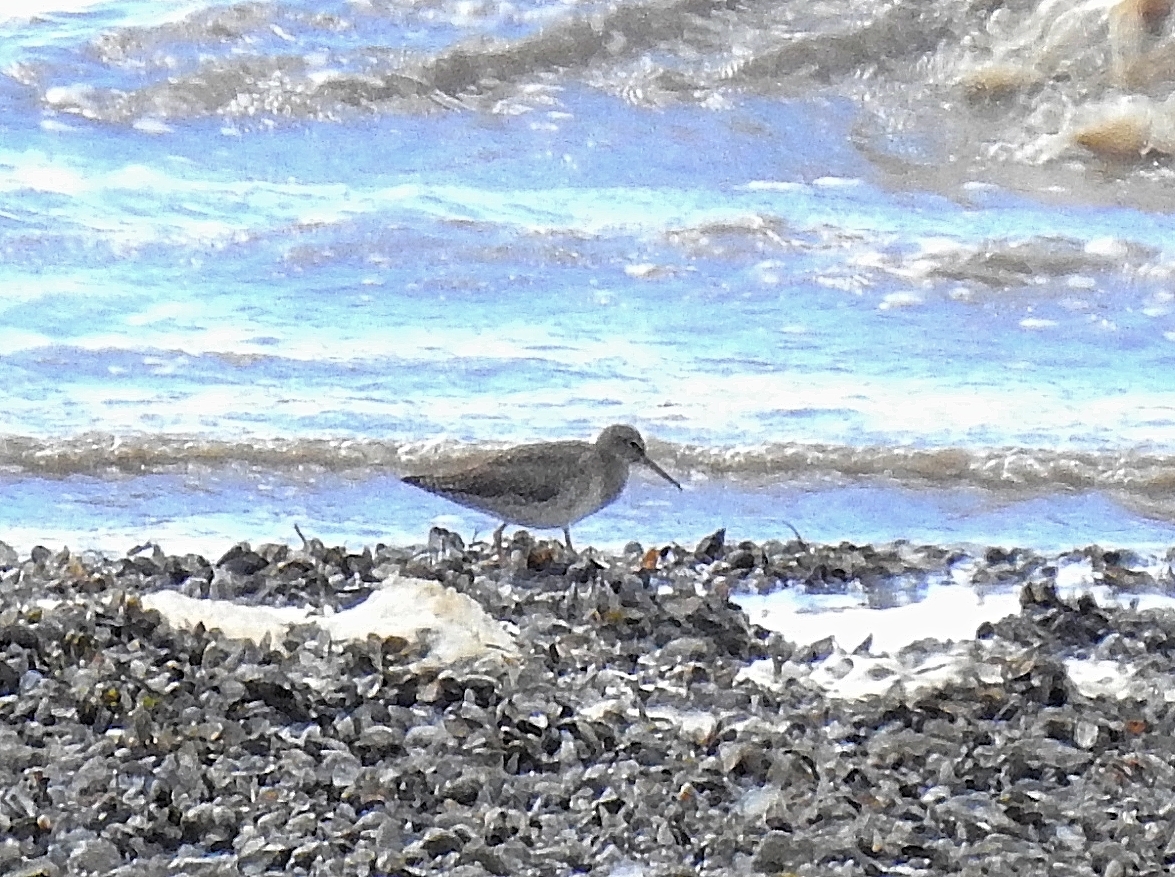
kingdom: Animalia
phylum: Chordata
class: Aves
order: Charadriiformes
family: Scolopacidae
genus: Tringa
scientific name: Tringa totanus
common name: Common redshank
